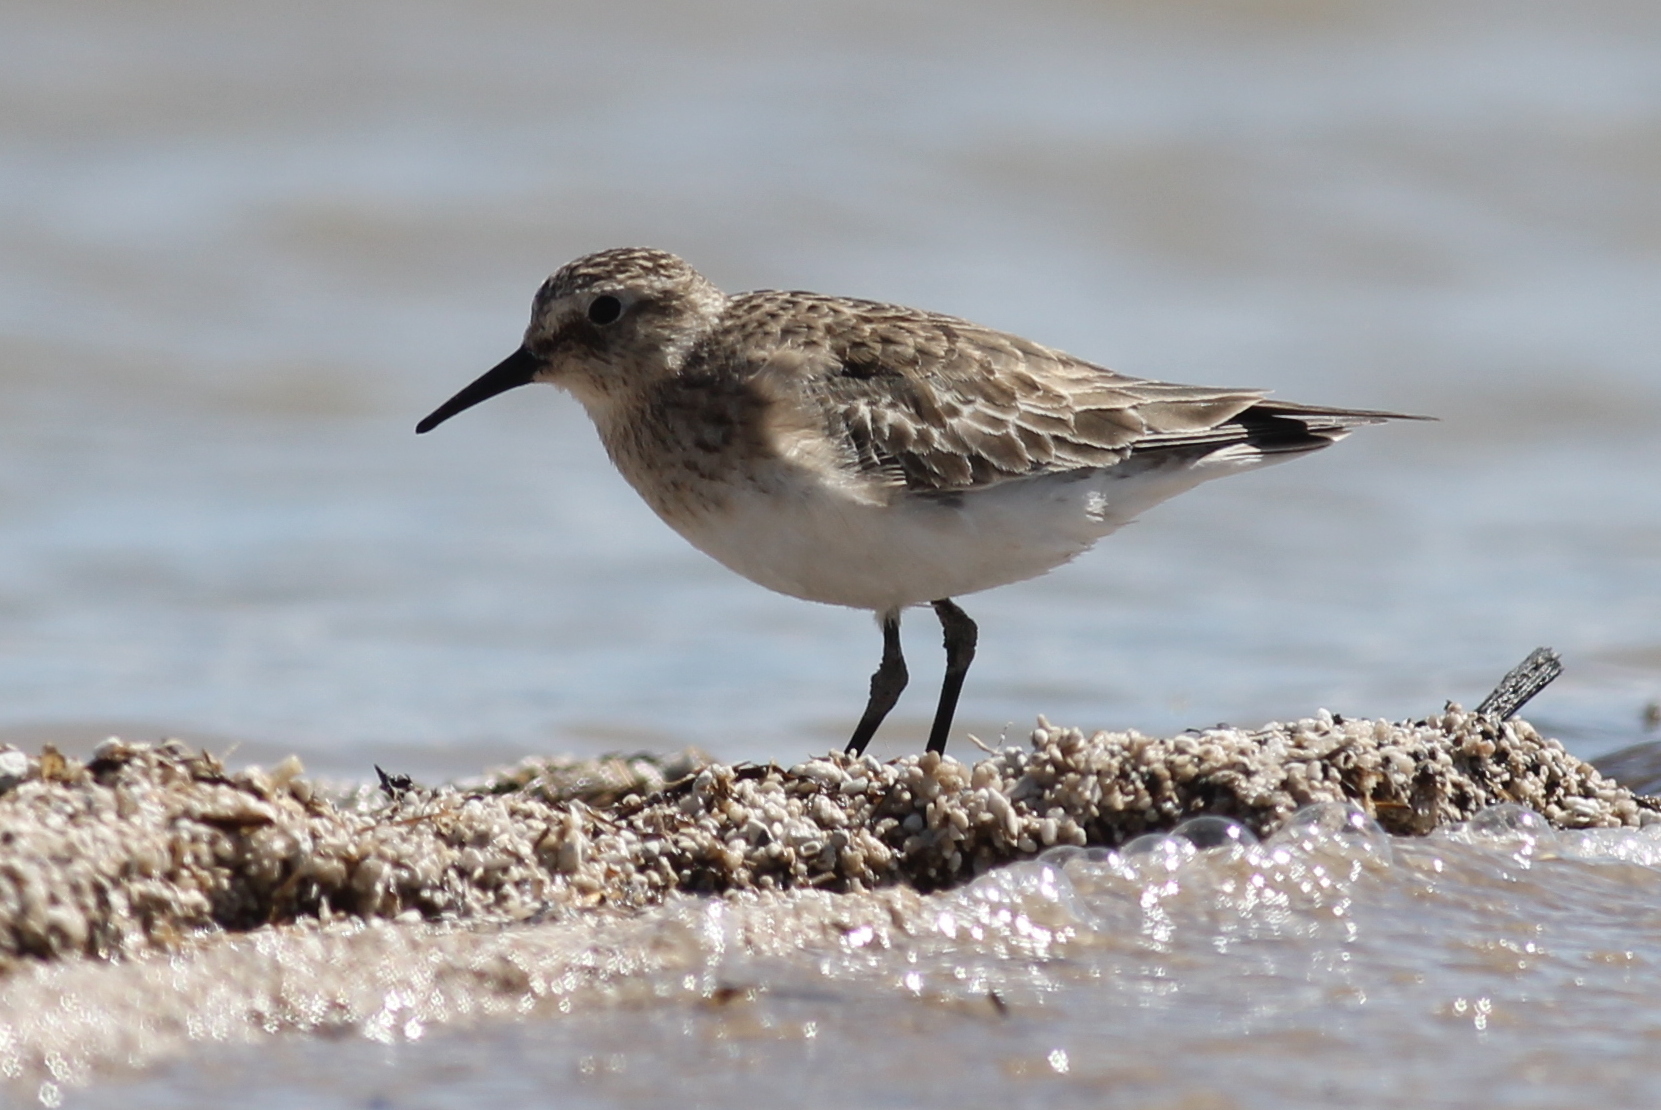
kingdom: Animalia
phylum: Chordata
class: Aves
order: Charadriiformes
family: Scolopacidae
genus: Calidris
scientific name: Calidris bairdii
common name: Baird's sandpiper
